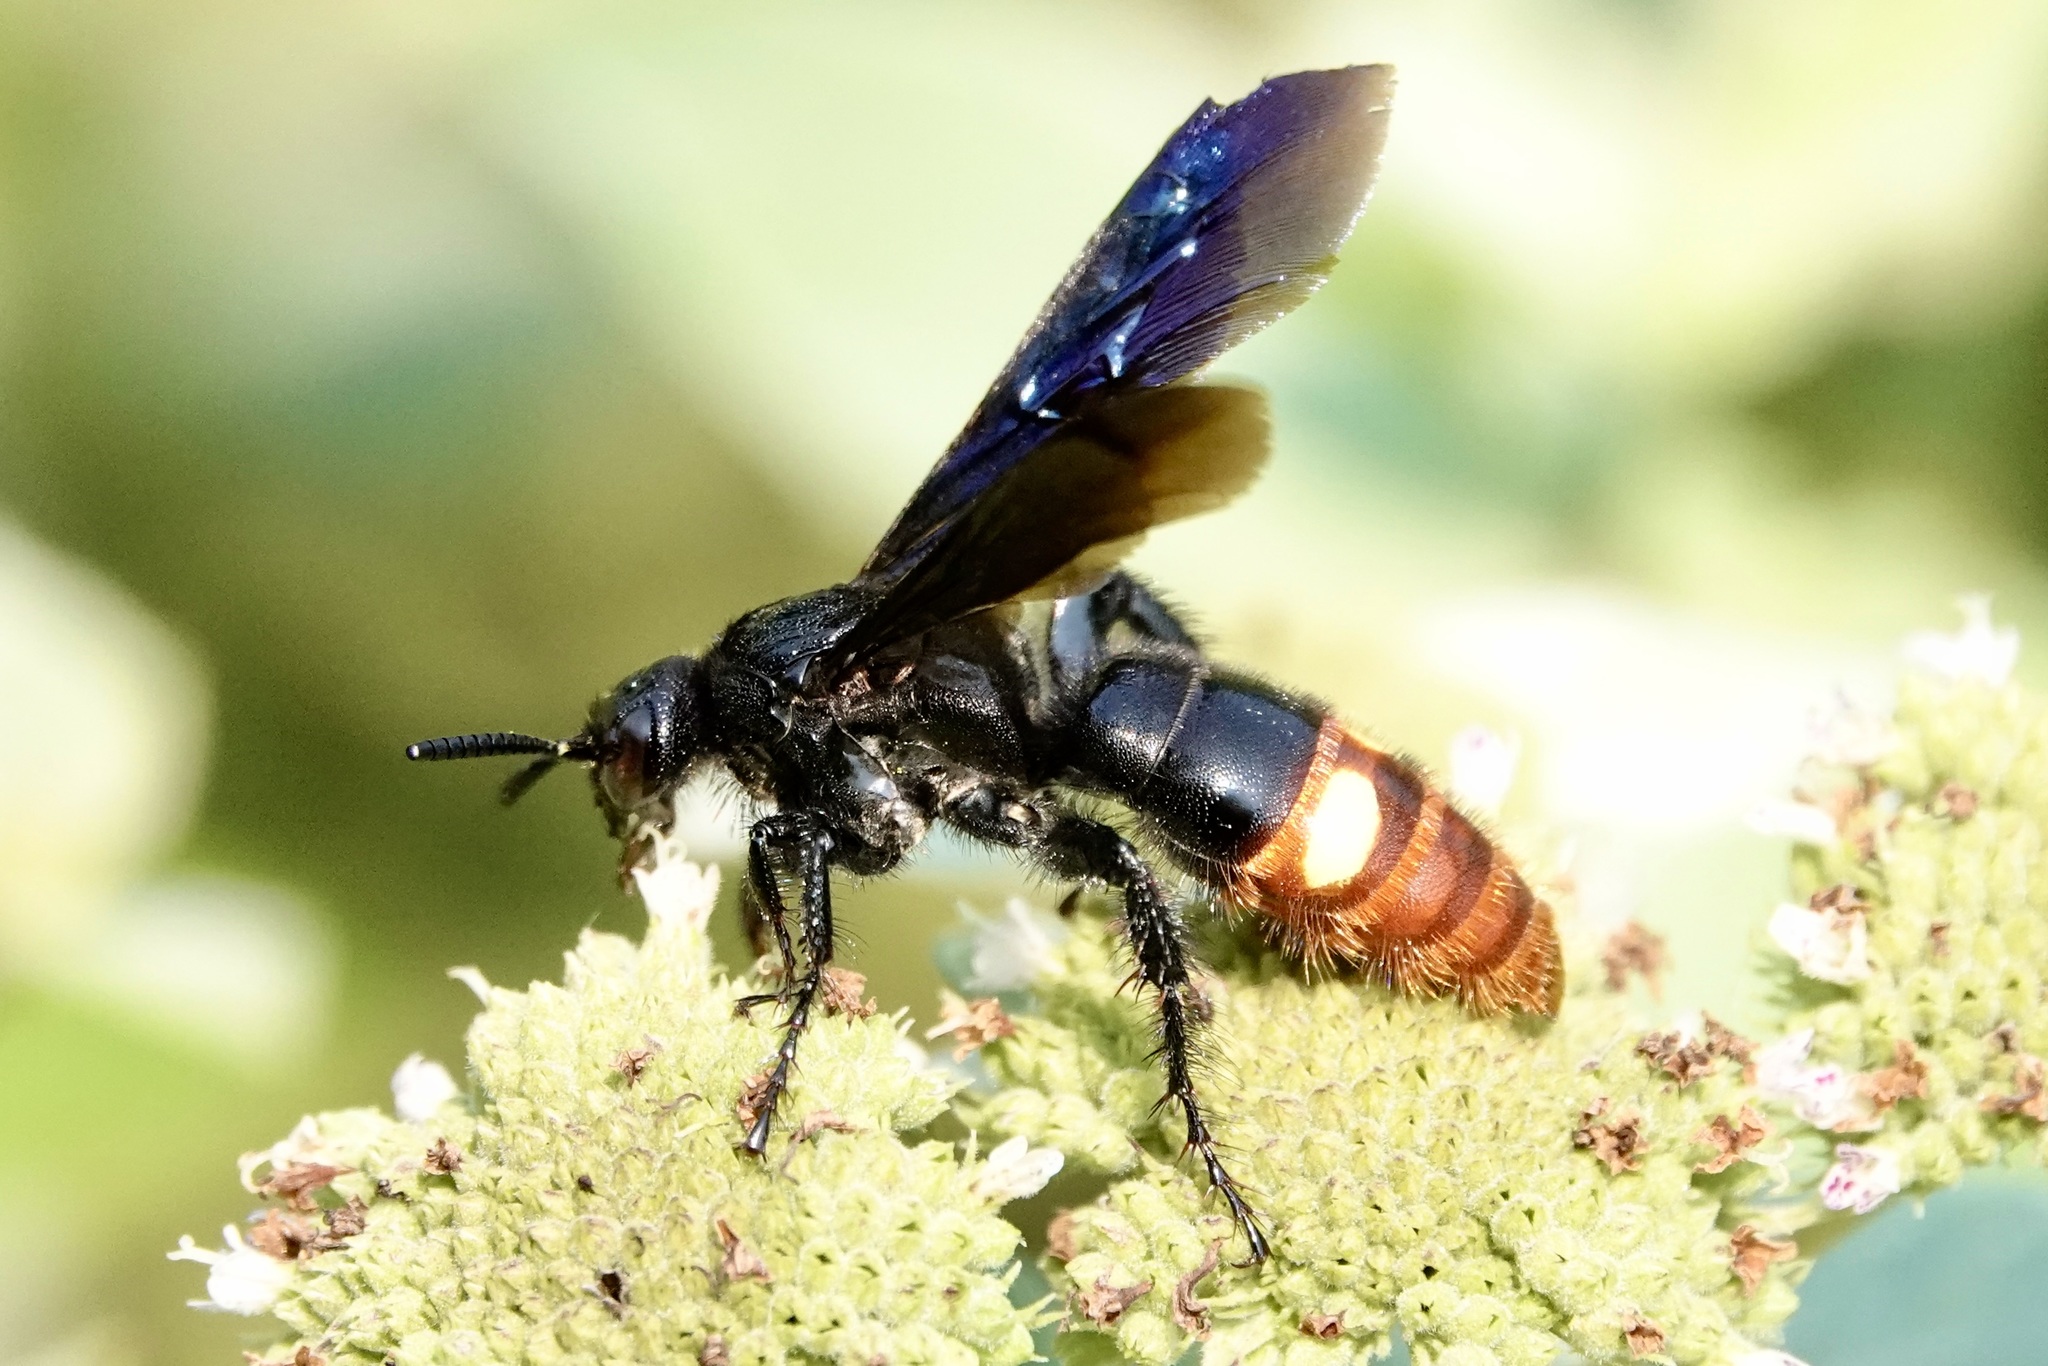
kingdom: Animalia
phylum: Arthropoda
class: Insecta
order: Hymenoptera
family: Scoliidae
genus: Scolia
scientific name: Scolia dubia
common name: Blue-winged scoliid wasp
